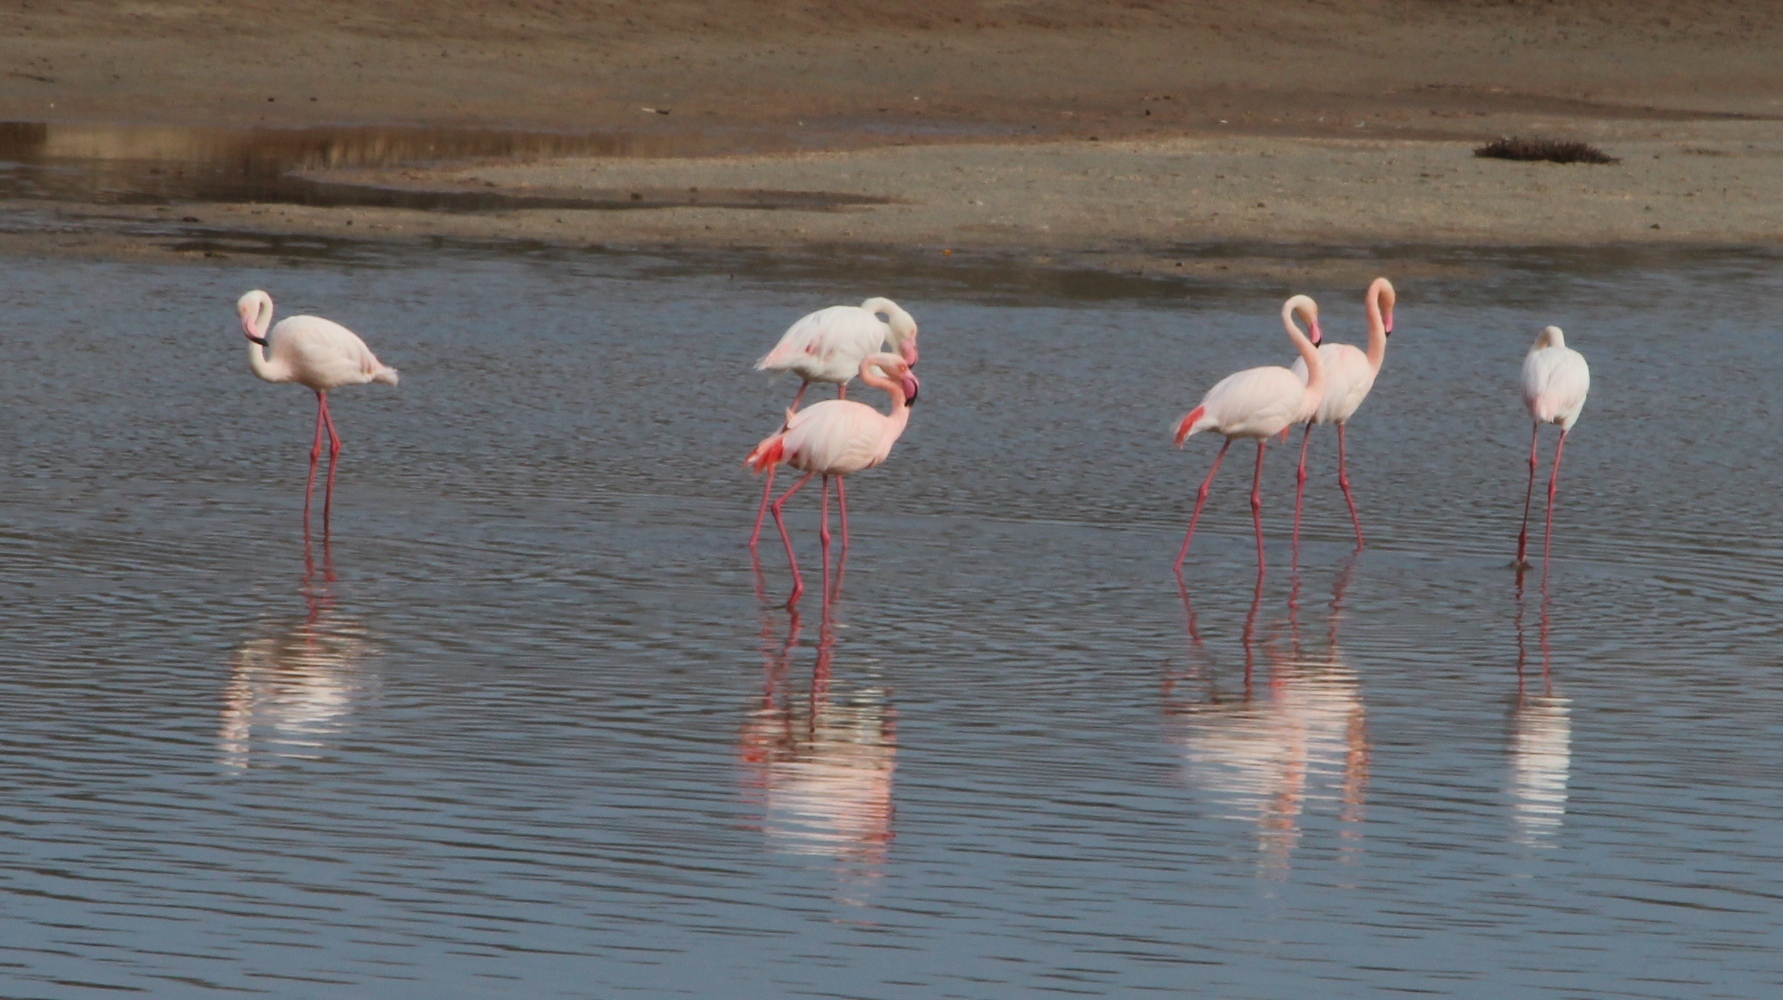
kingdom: Animalia
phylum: Chordata
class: Aves
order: Phoenicopteriformes
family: Phoenicopteridae
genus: Phoenicopterus
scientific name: Phoenicopterus roseus
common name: Greater flamingo
